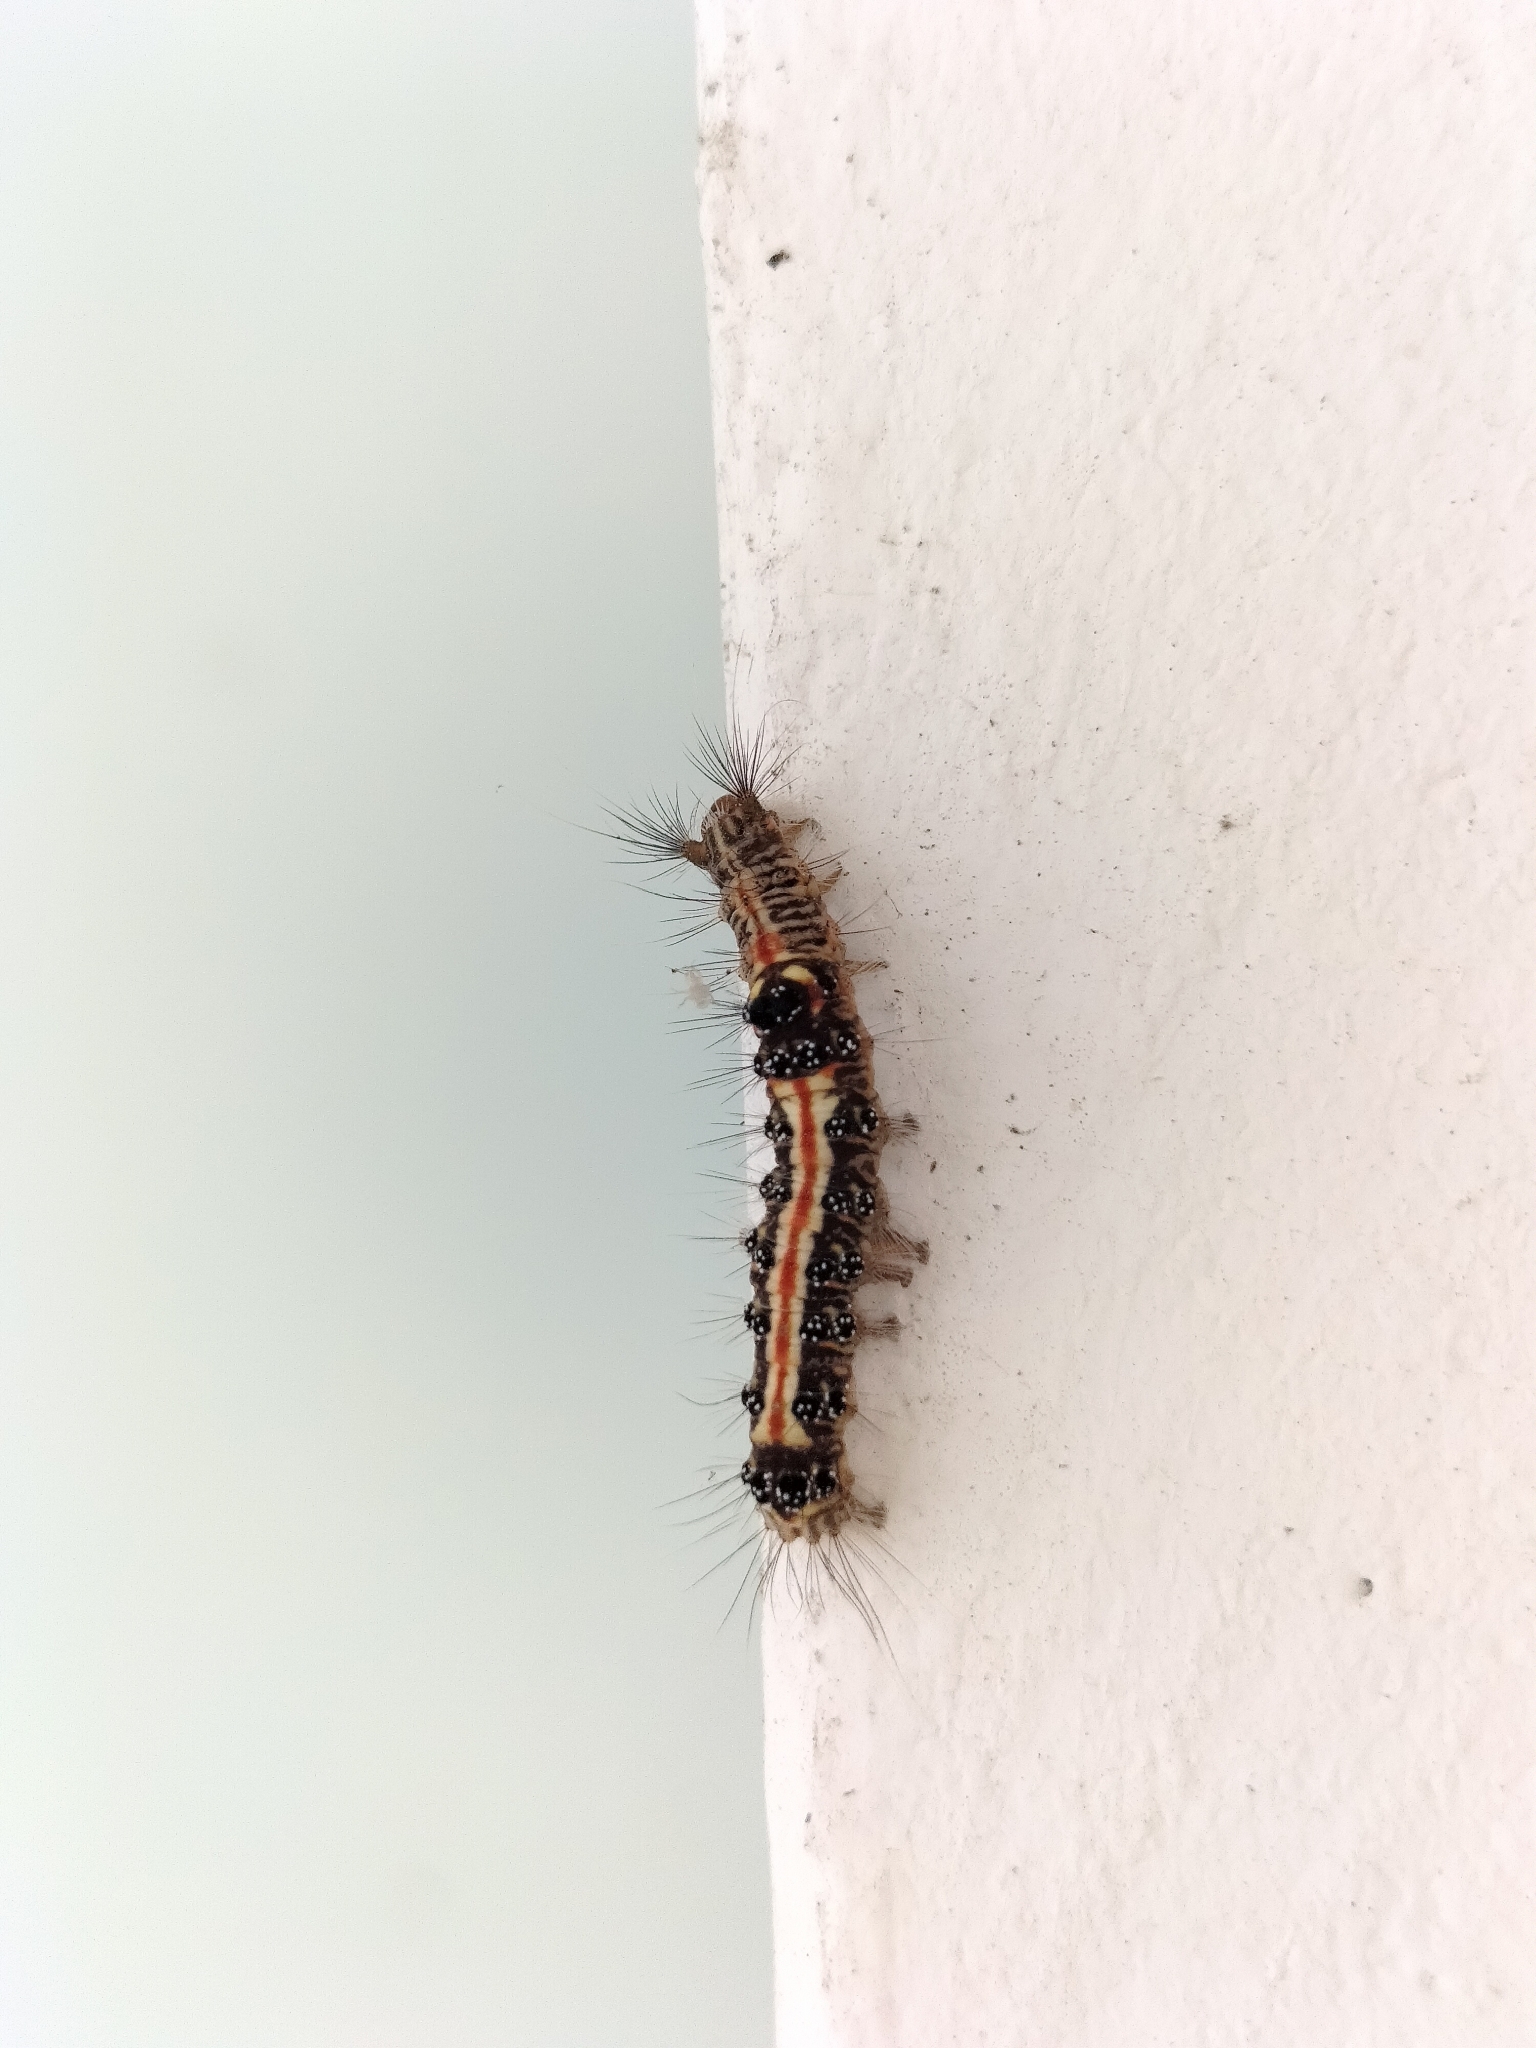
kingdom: Animalia
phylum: Arthropoda
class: Insecta
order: Lepidoptera
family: Erebidae
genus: Euproctis
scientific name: Euproctis taiwana
